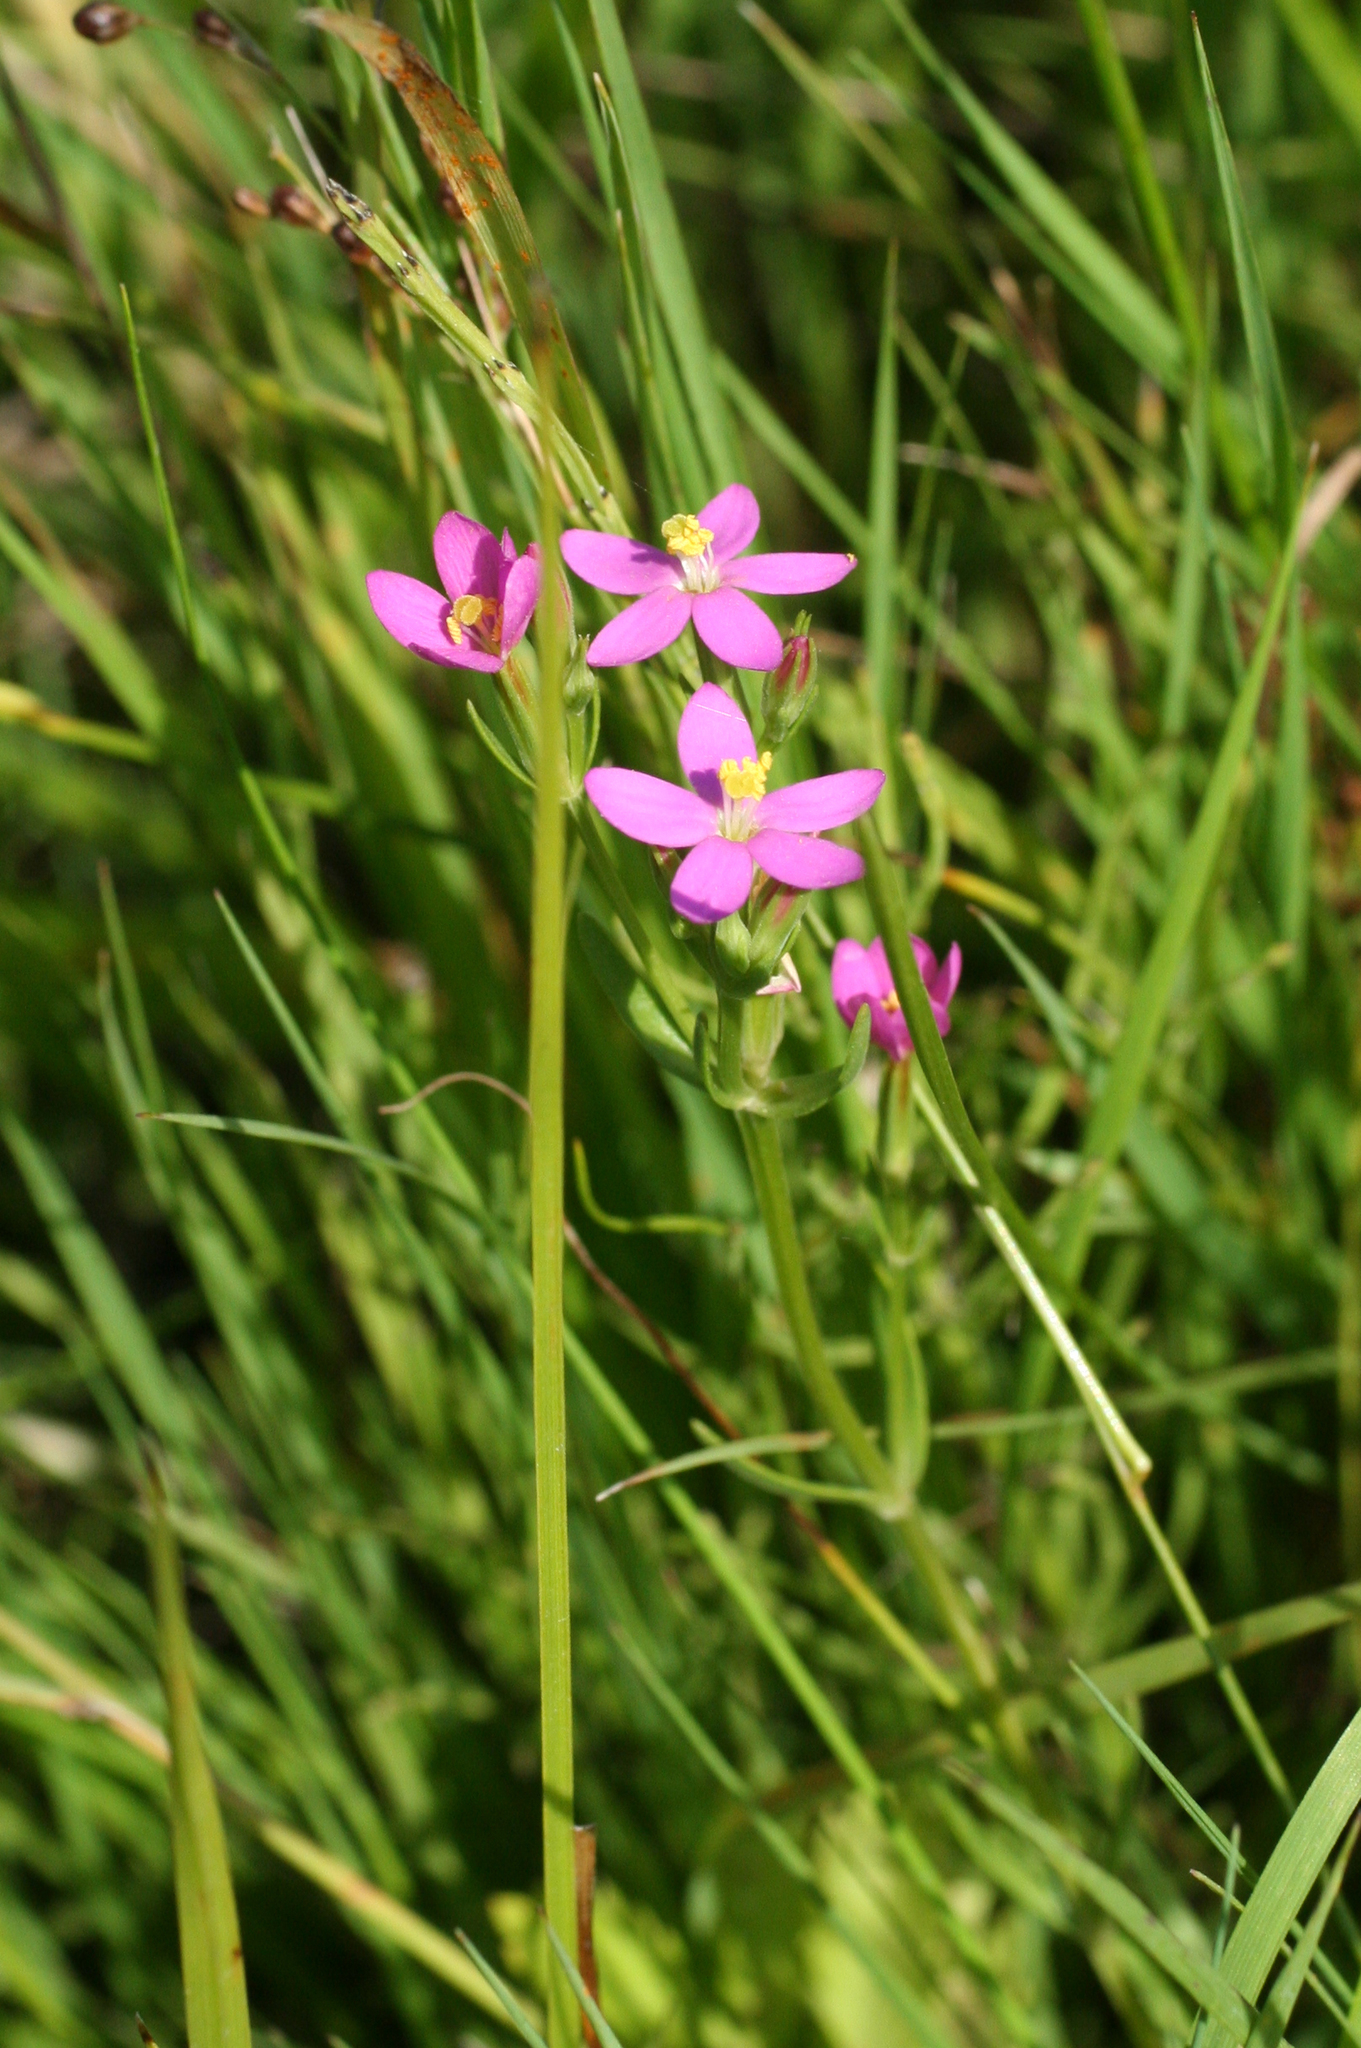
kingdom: Plantae
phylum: Tracheophyta
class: Magnoliopsida
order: Gentianales
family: Gentianaceae
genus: Centaurium
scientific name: Centaurium pulchellum
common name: Lesser centaury
